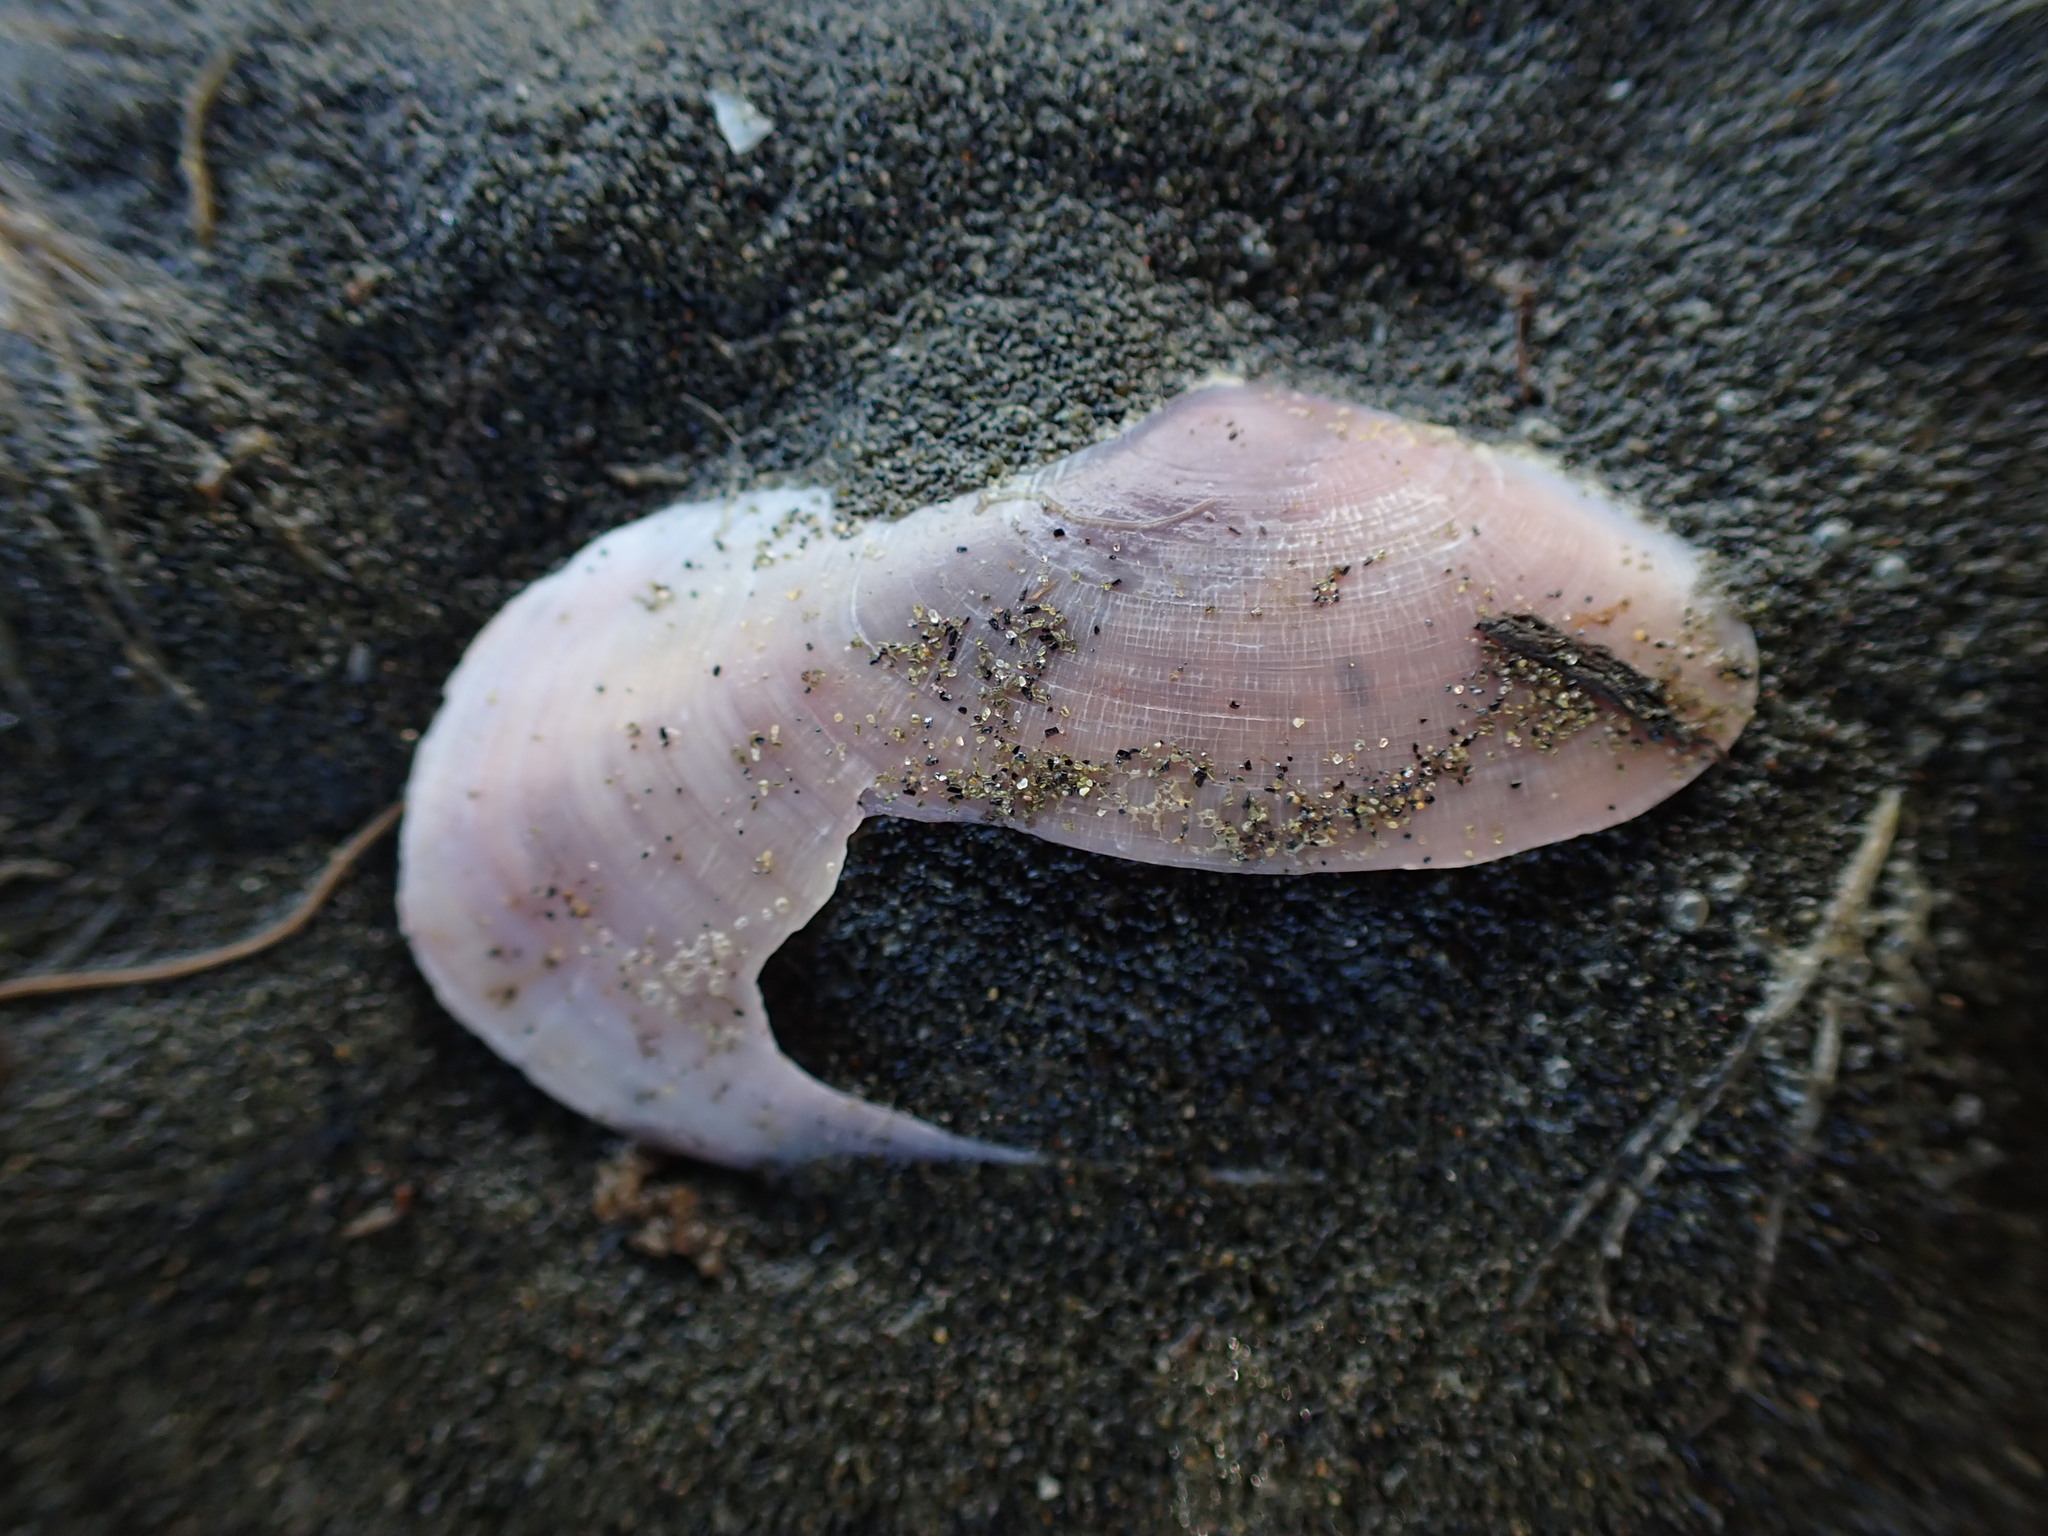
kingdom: Animalia
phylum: Mollusca
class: Bivalvia
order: Cardiida
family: Psammobiidae
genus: Gari
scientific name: Gari lineolata
